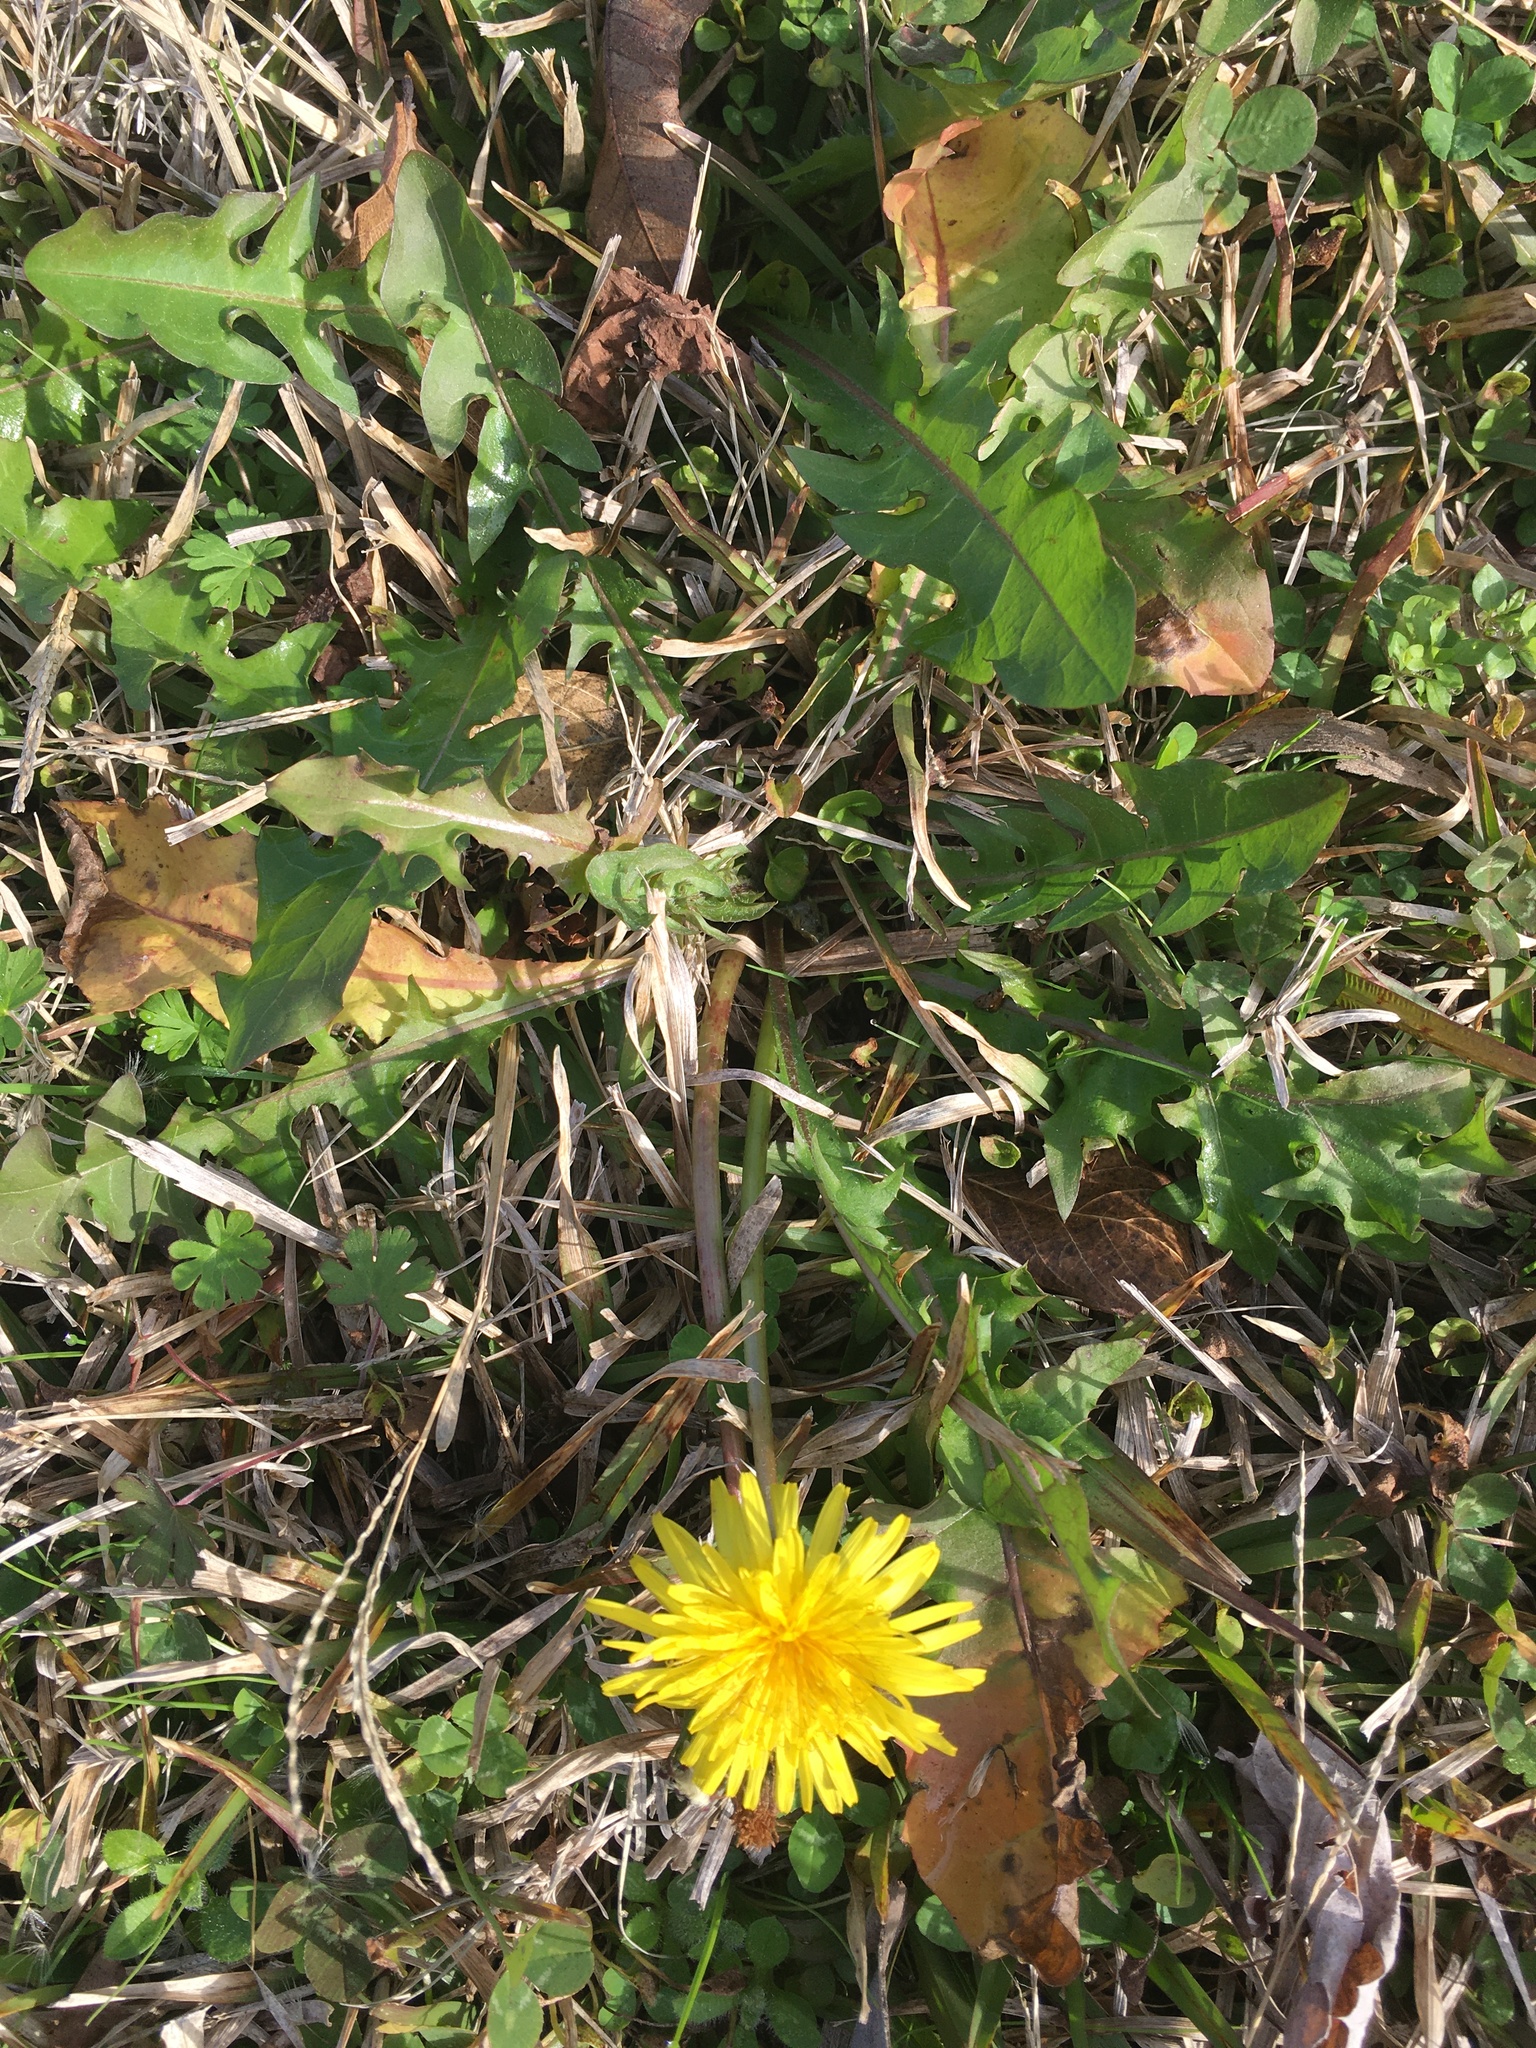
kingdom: Plantae
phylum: Tracheophyta
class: Magnoliopsida
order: Asterales
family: Asteraceae
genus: Taraxacum
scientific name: Taraxacum officinale
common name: Common dandelion
